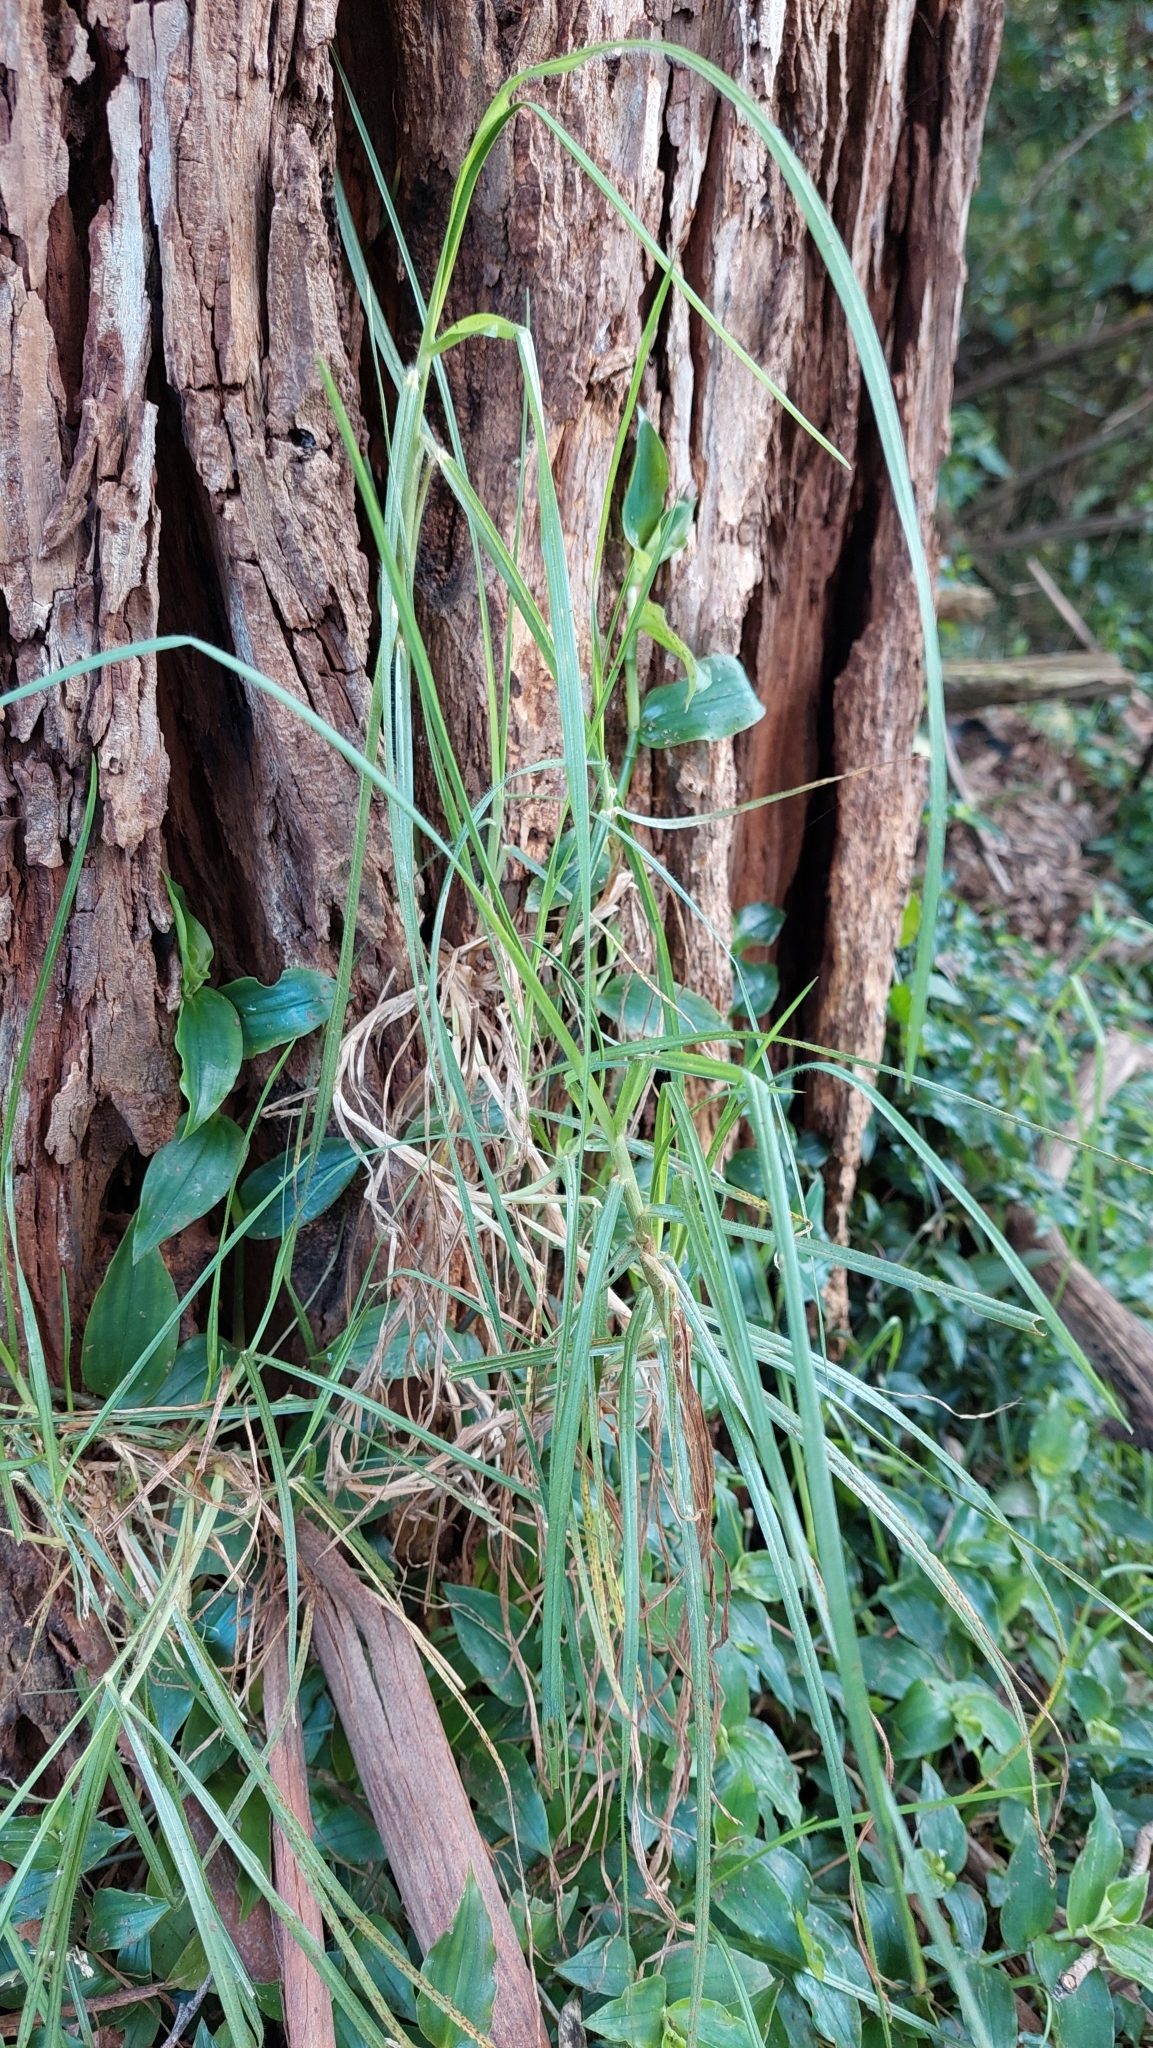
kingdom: Plantae
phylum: Tracheophyta
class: Liliopsida
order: Poales
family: Poaceae
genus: Cenchrus
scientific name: Cenchrus clandestinus
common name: Kikuyugrass
